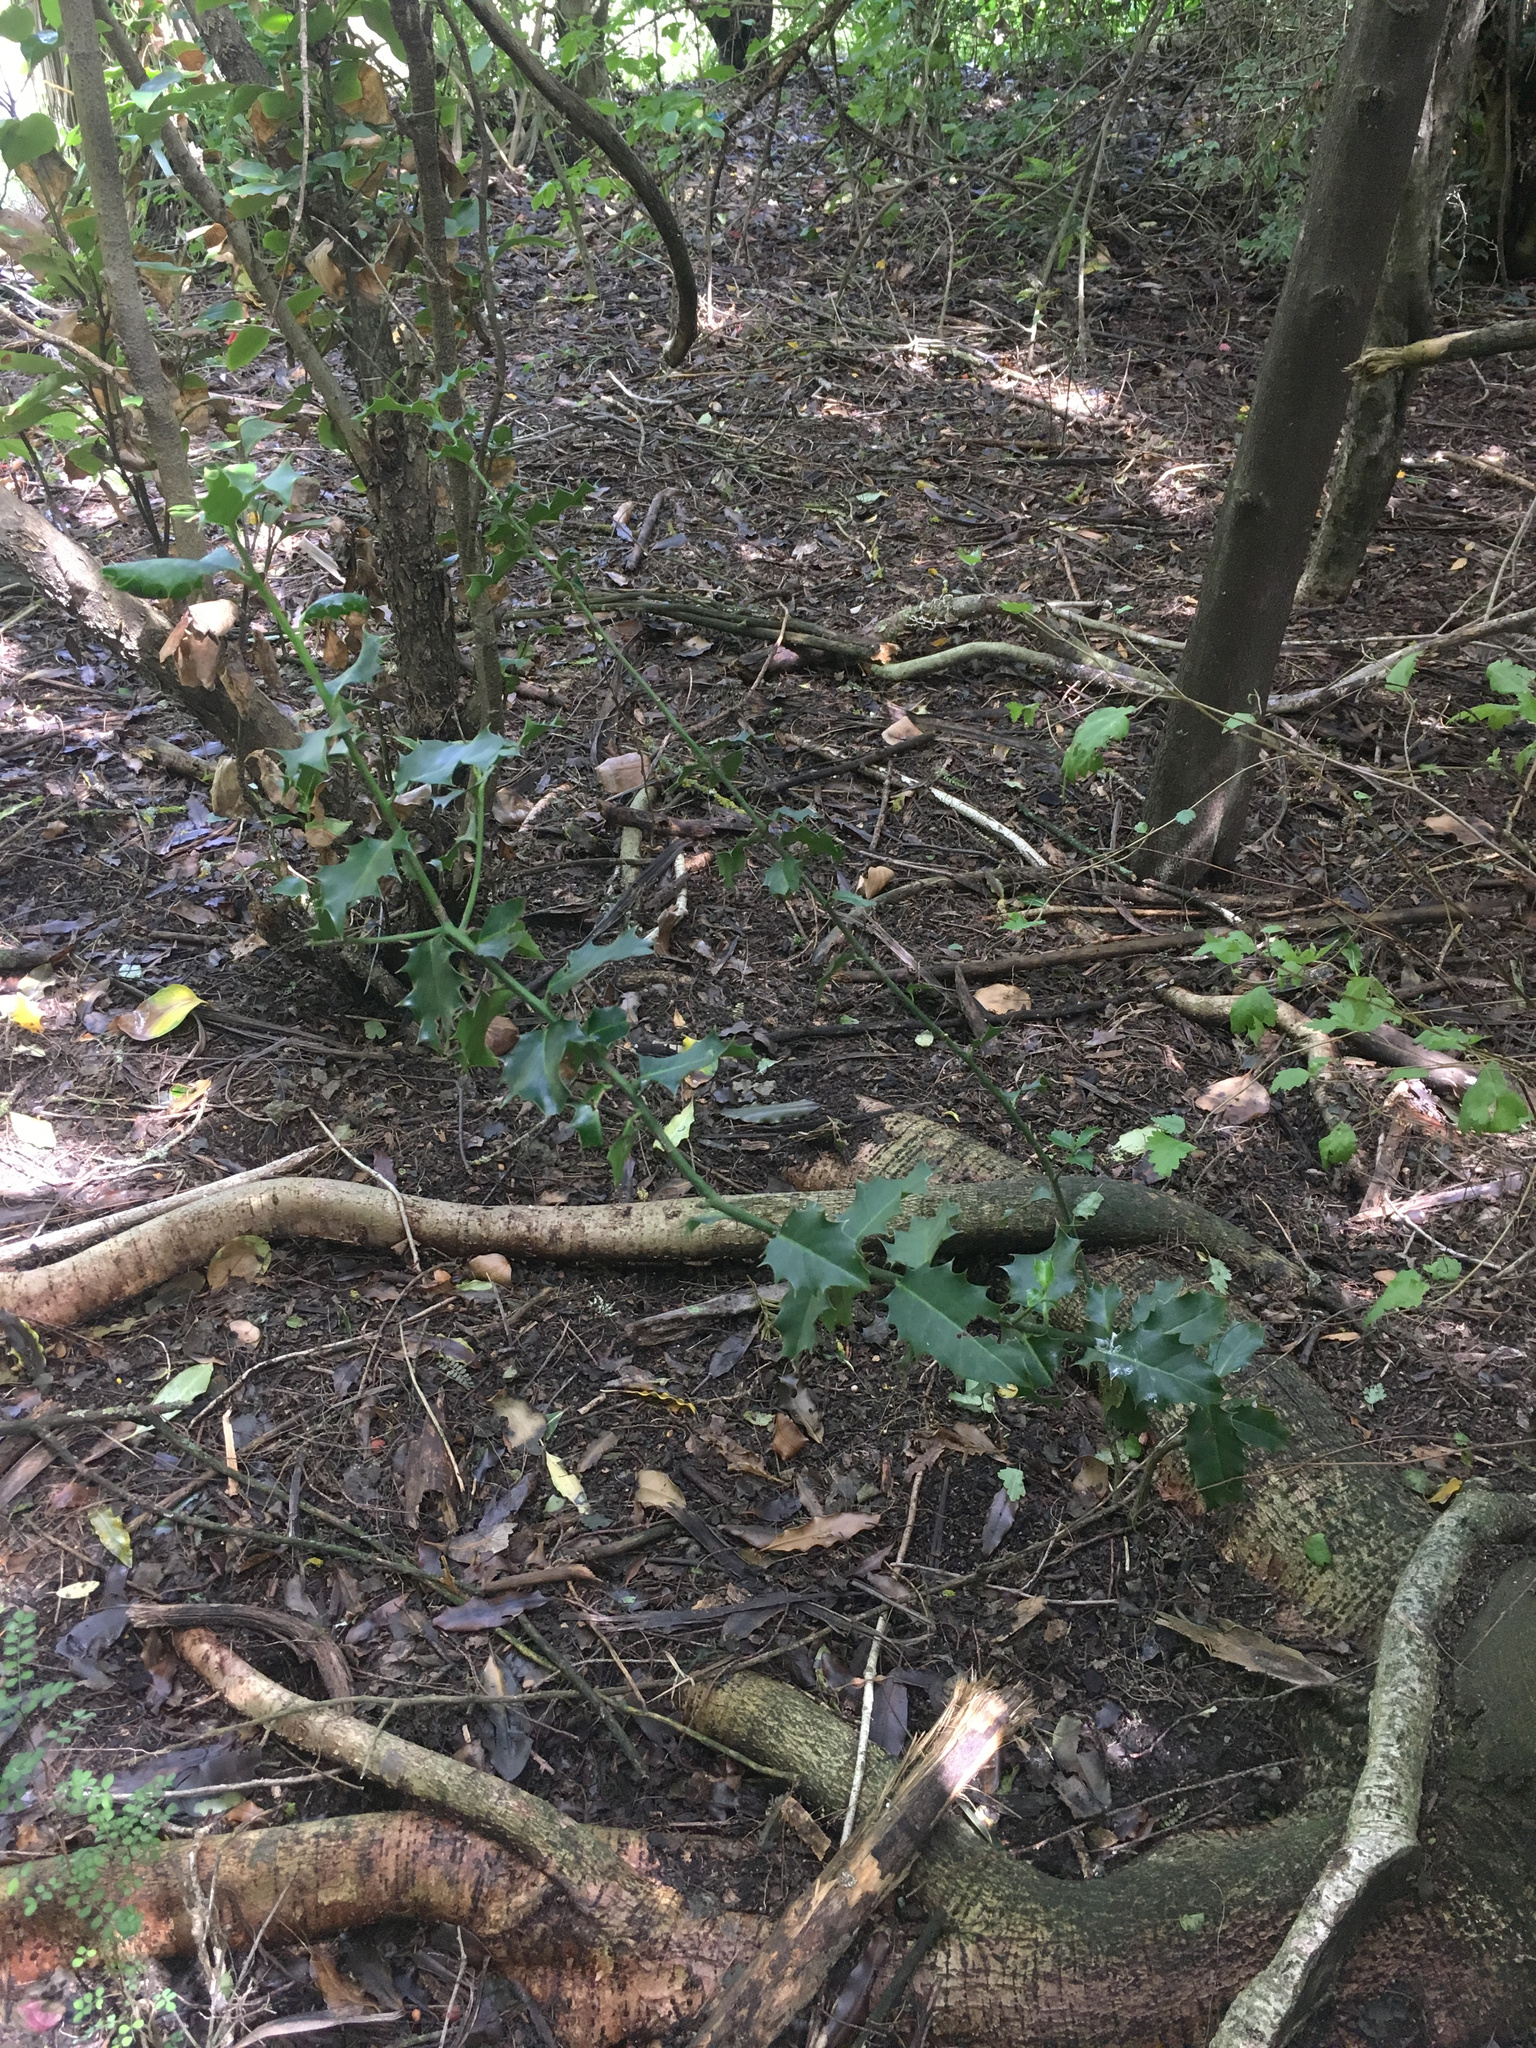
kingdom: Plantae
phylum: Tracheophyta
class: Magnoliopsida
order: Aquifoliales
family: Aquifoliaceae
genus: Ilex
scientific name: Ilex aquifolium
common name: English holly
